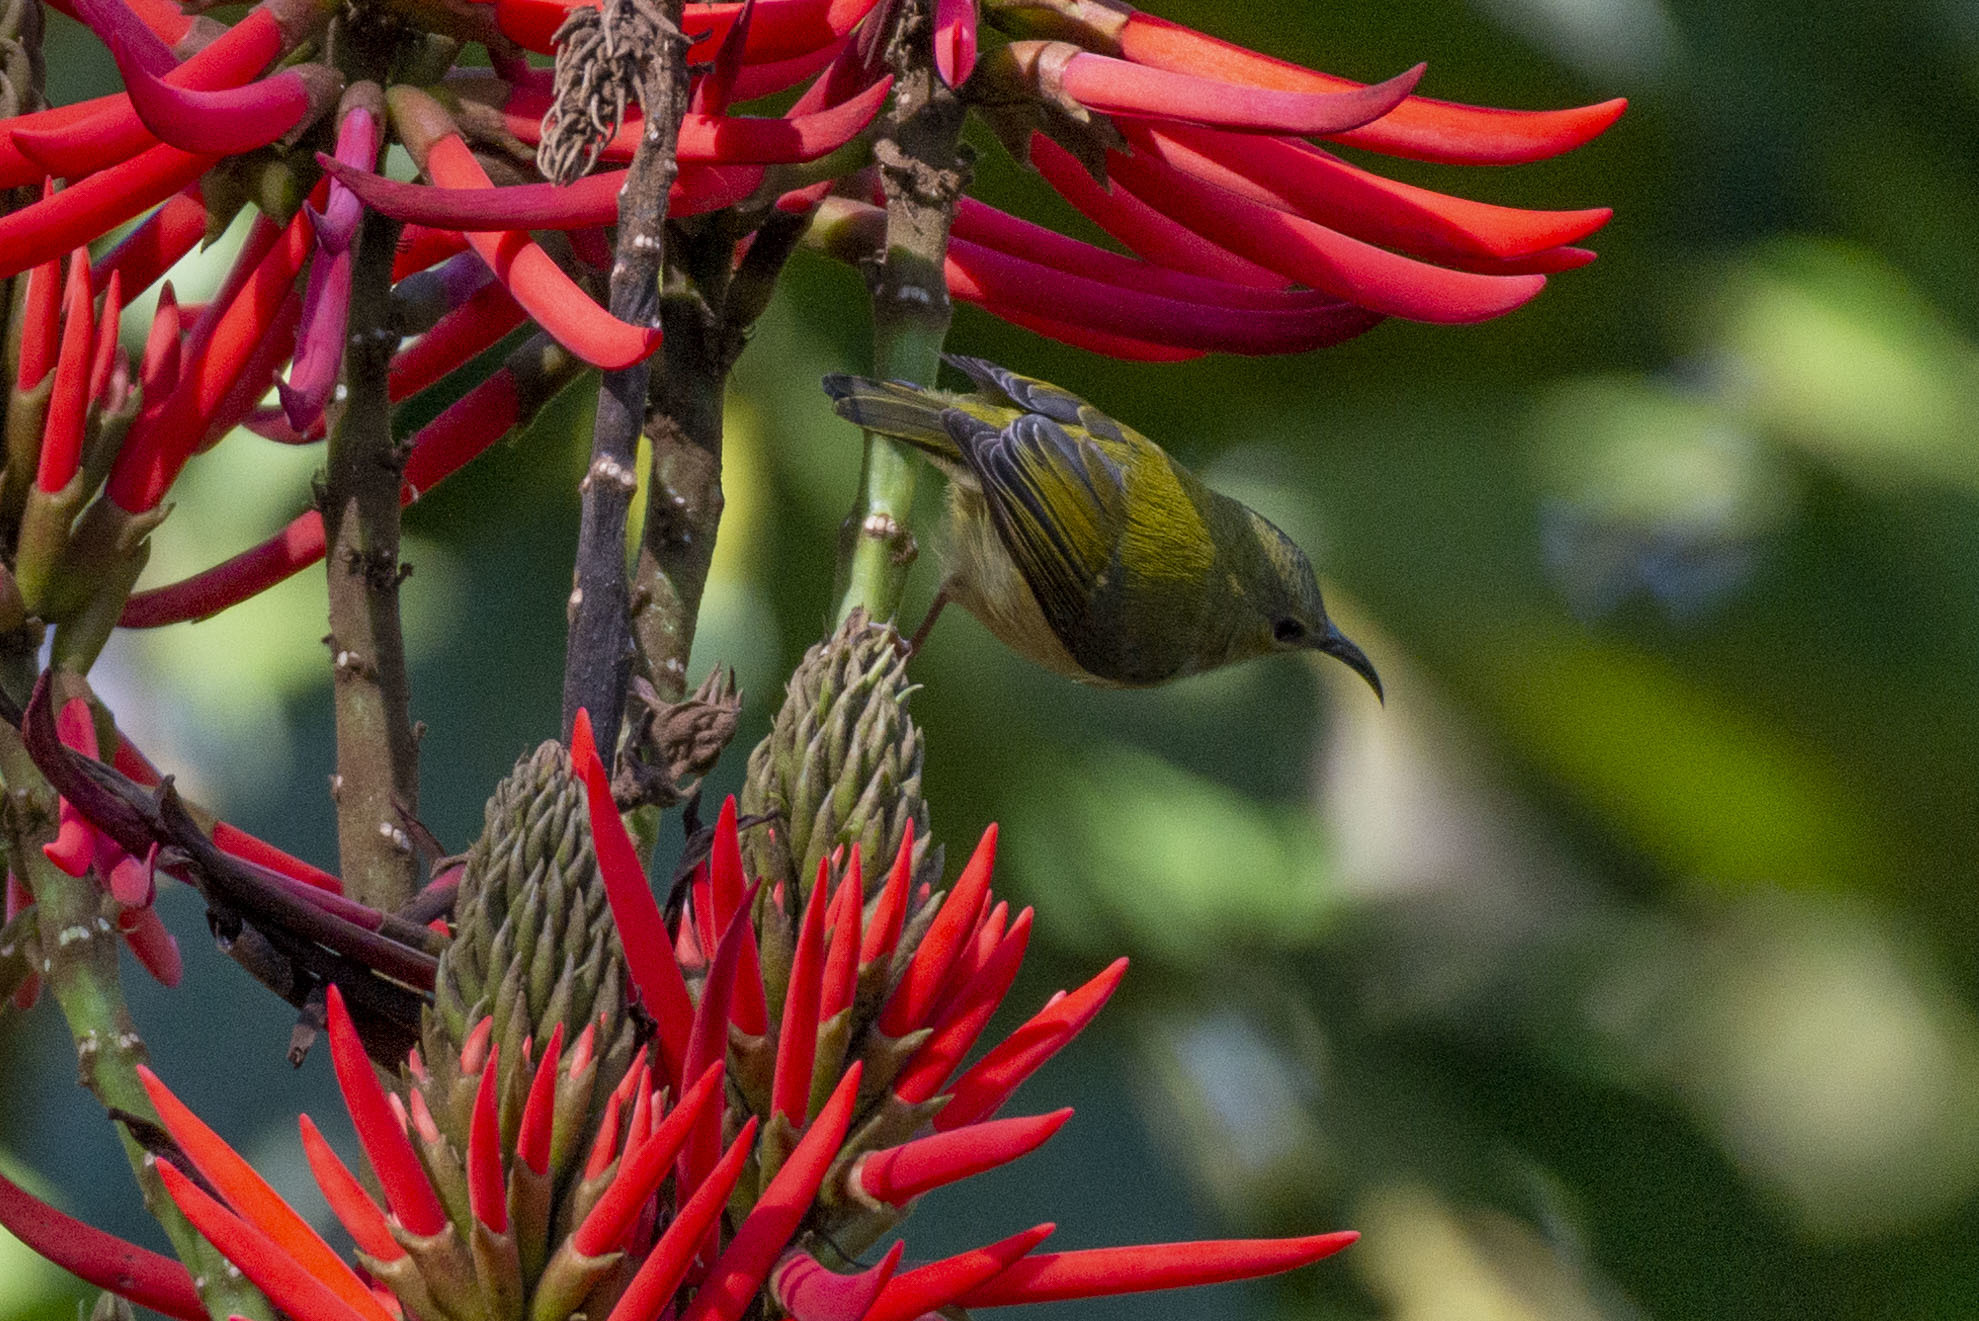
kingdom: Animalia
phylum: Chordata
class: Aves
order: Passeriformes
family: Nectariniidae
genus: Aethopyga
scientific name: Aethopyga christinae
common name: Fork-tailed sunbird
